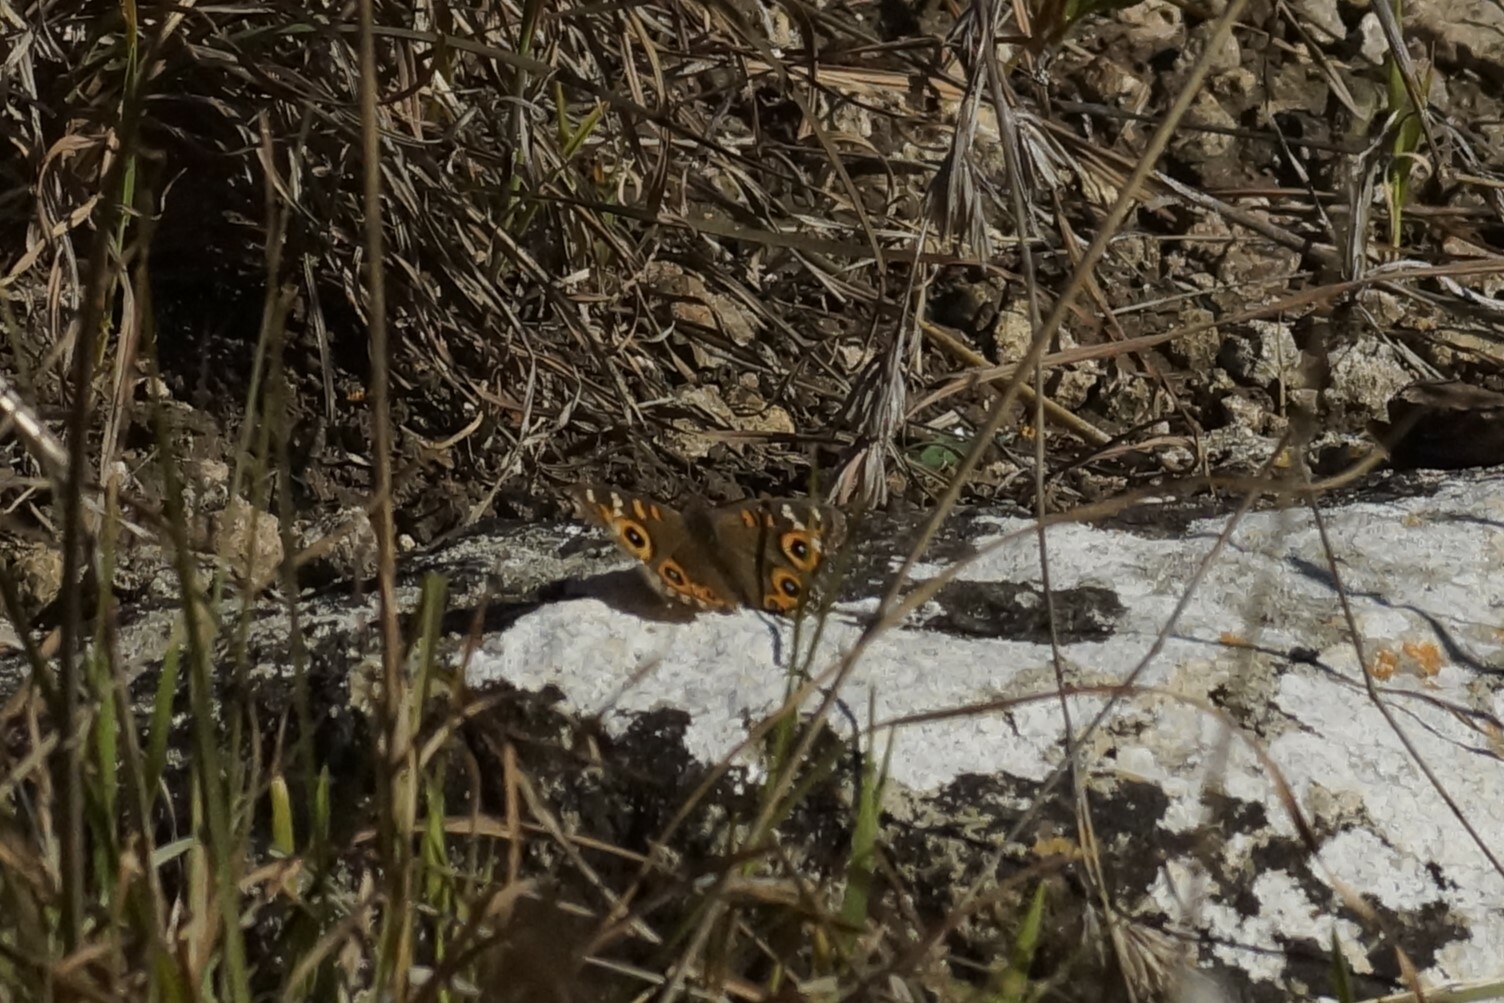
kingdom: Animalia
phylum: Arthropoda
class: Insecta
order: Lepidoptera
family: Nymphalidae
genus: Junonia
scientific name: Junonia villida
